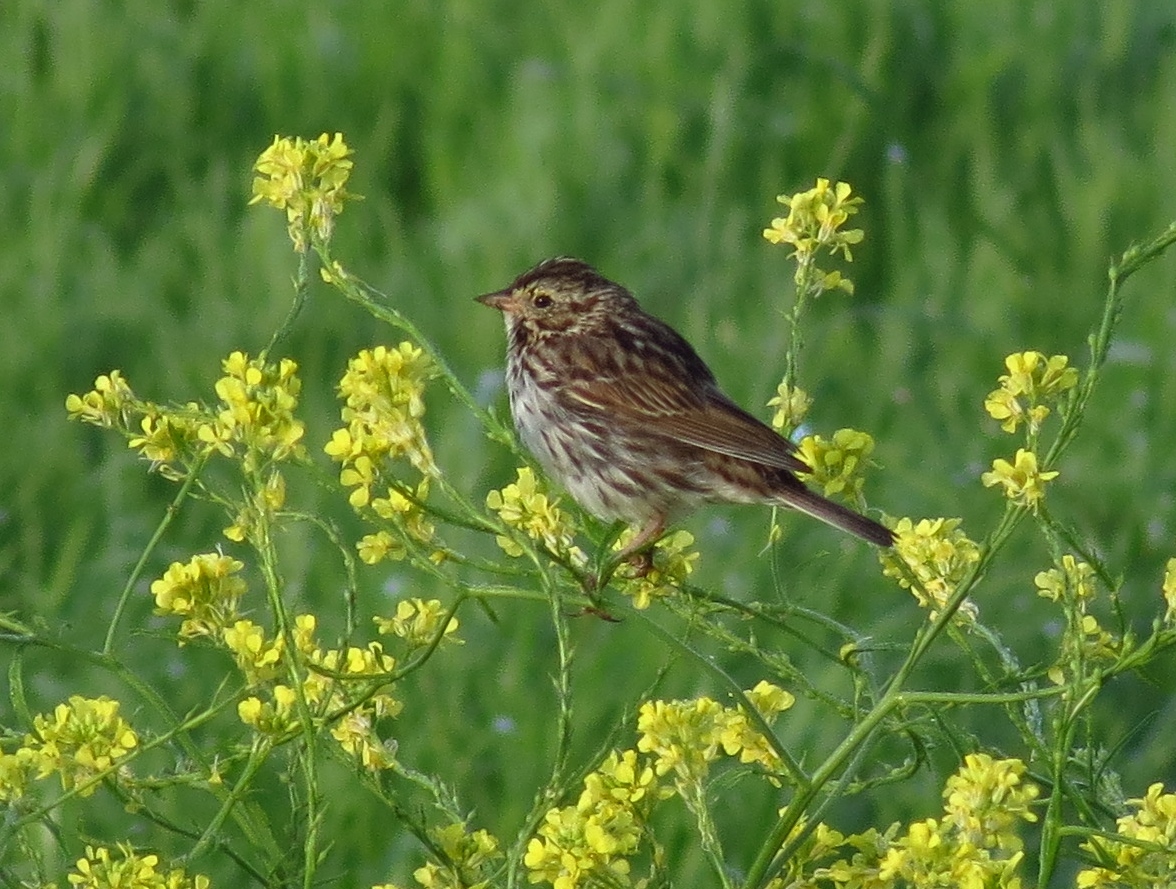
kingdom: Animalia
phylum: Chordata
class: Aves
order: Passeriformes
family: Passerellidae
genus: Passerculus
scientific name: Passerculus sandwichensis
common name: Savannah sparrow
